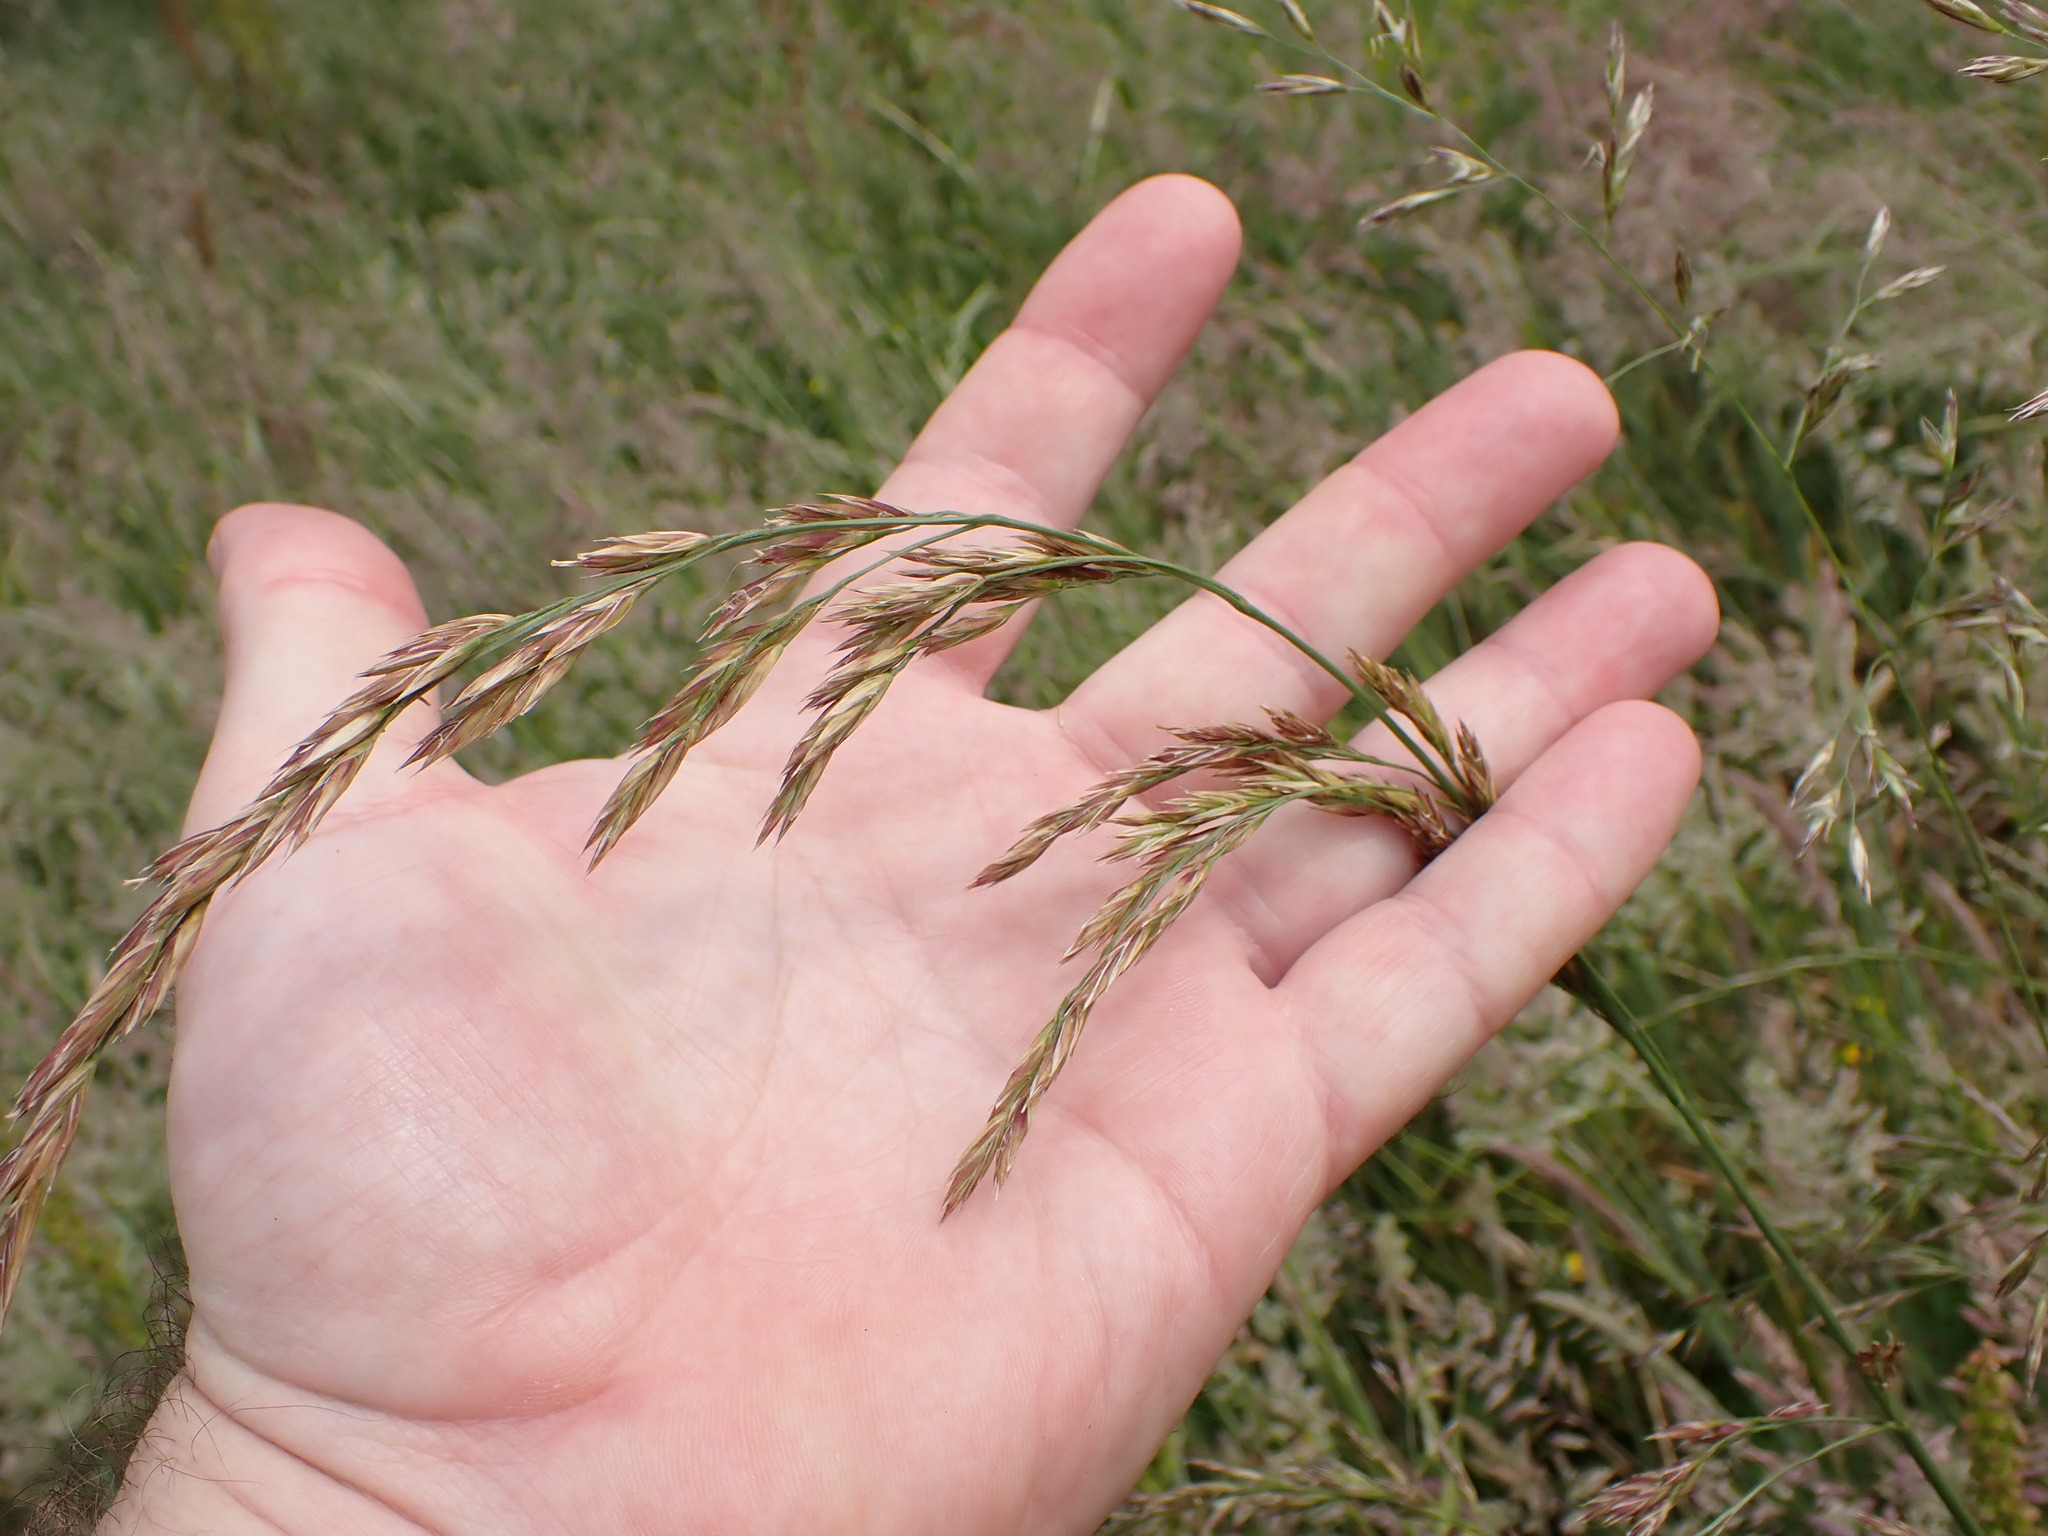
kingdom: Plantae
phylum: Tracheophyta
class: Liliopsida
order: Poales
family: Poaceae
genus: Lolium
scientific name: Lolium arundinaceum
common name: Reed fescue
